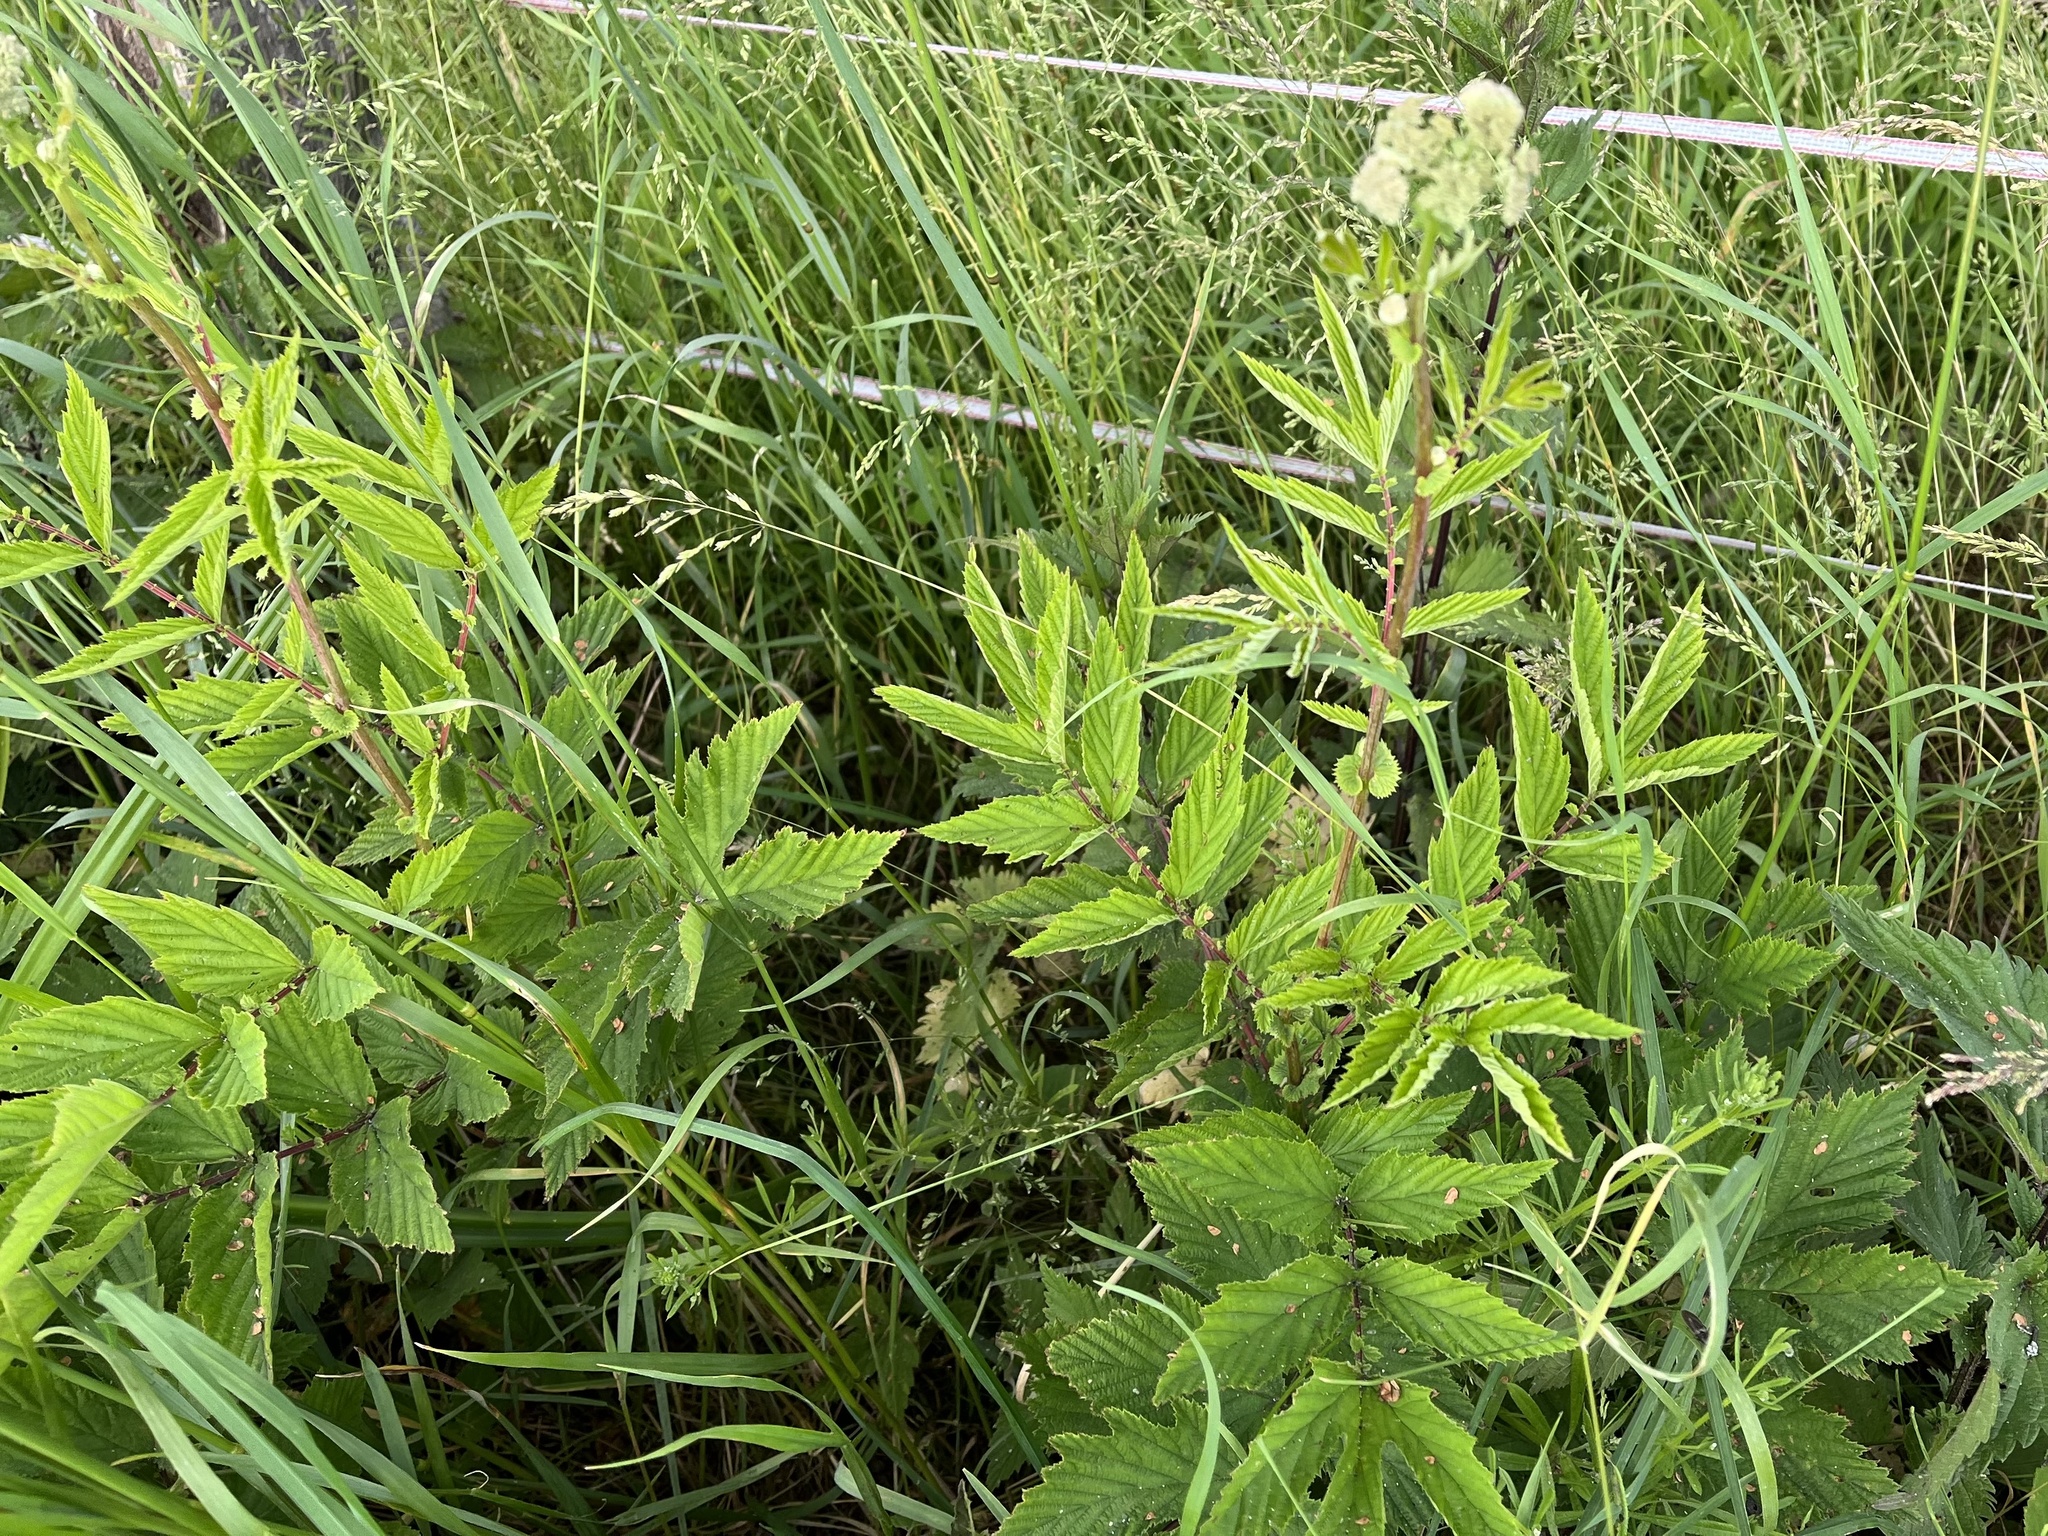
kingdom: Plantae
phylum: Tracheophyta
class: Magnoliopsida
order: Rosales
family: Rosaceae
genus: Filipendula
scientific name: Filipendula ulmaria
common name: Meadowsweet
